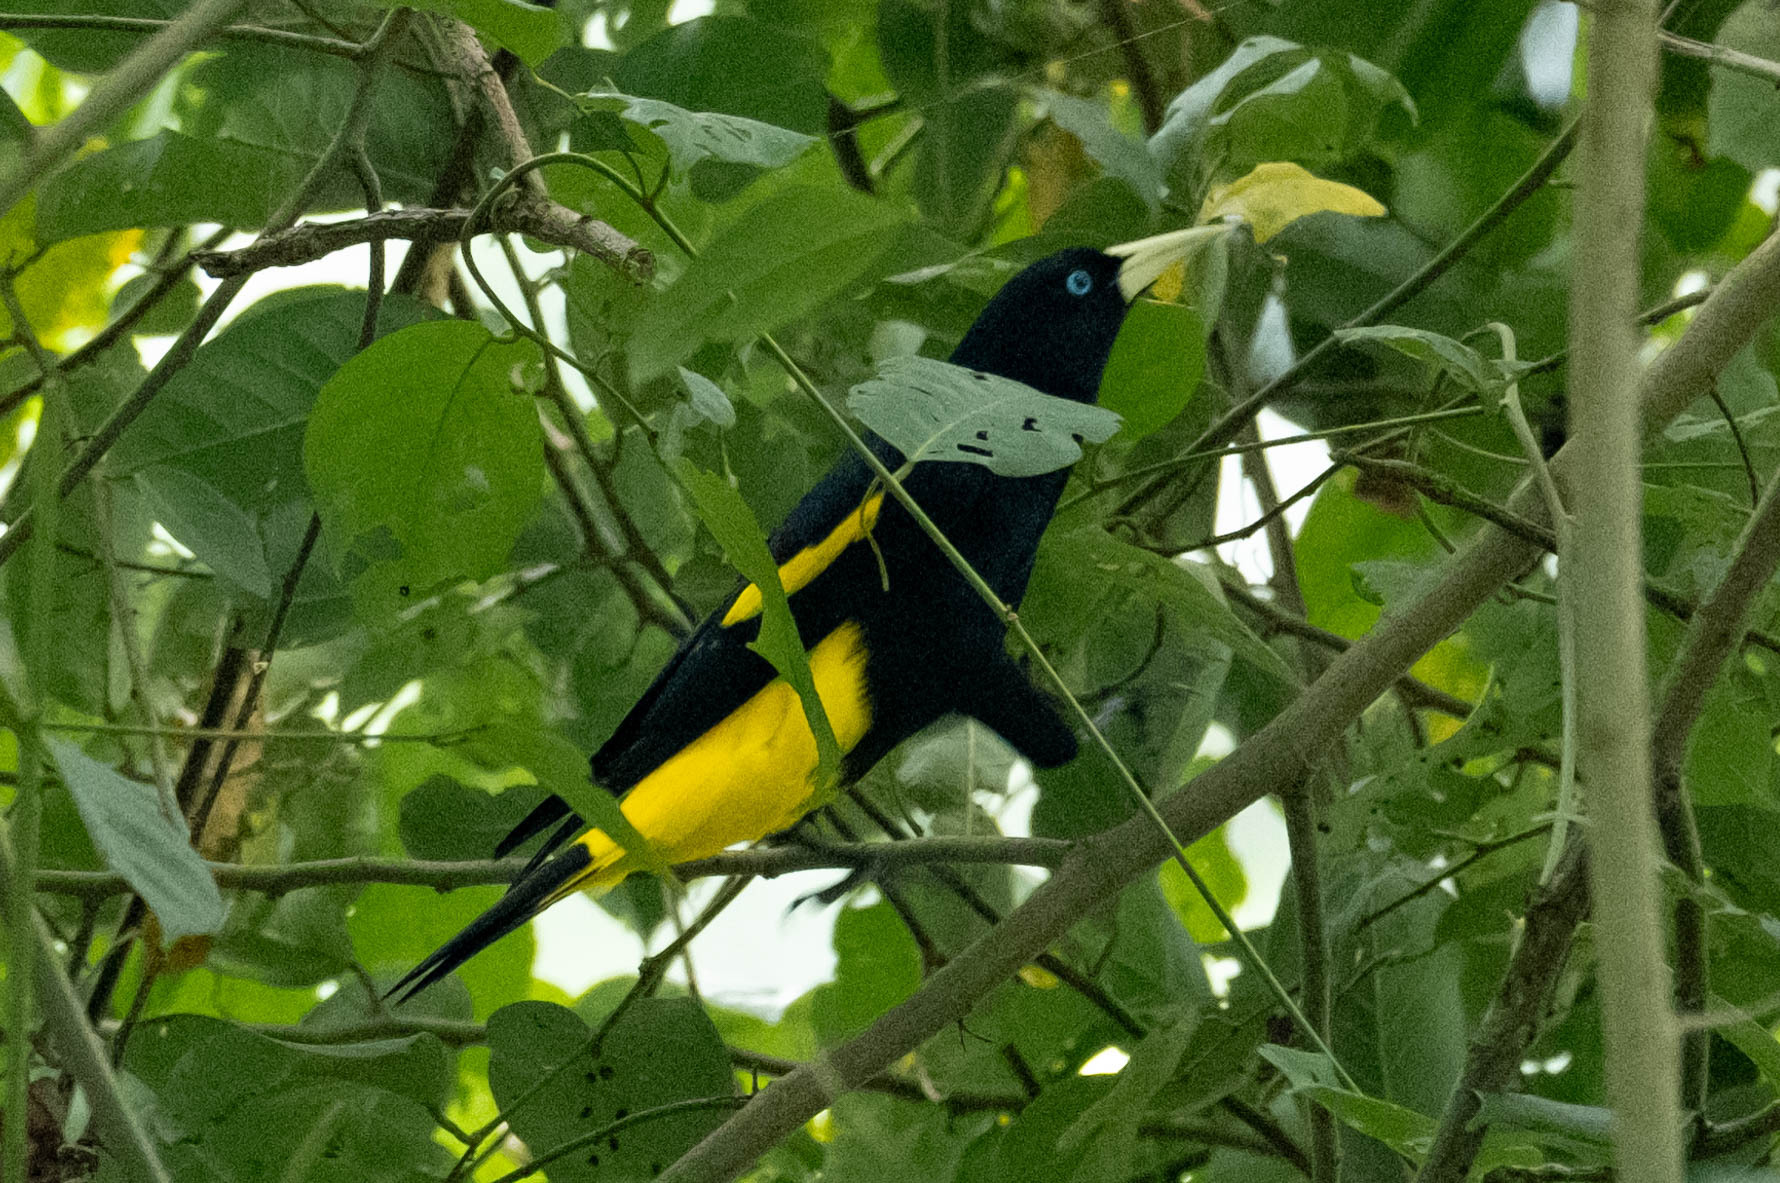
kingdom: Animalia
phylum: Chordata
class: Aves
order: Passeriformes
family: Icteridae
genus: Cacicus
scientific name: Cacicus cela
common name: Yellow-rumped cacique
